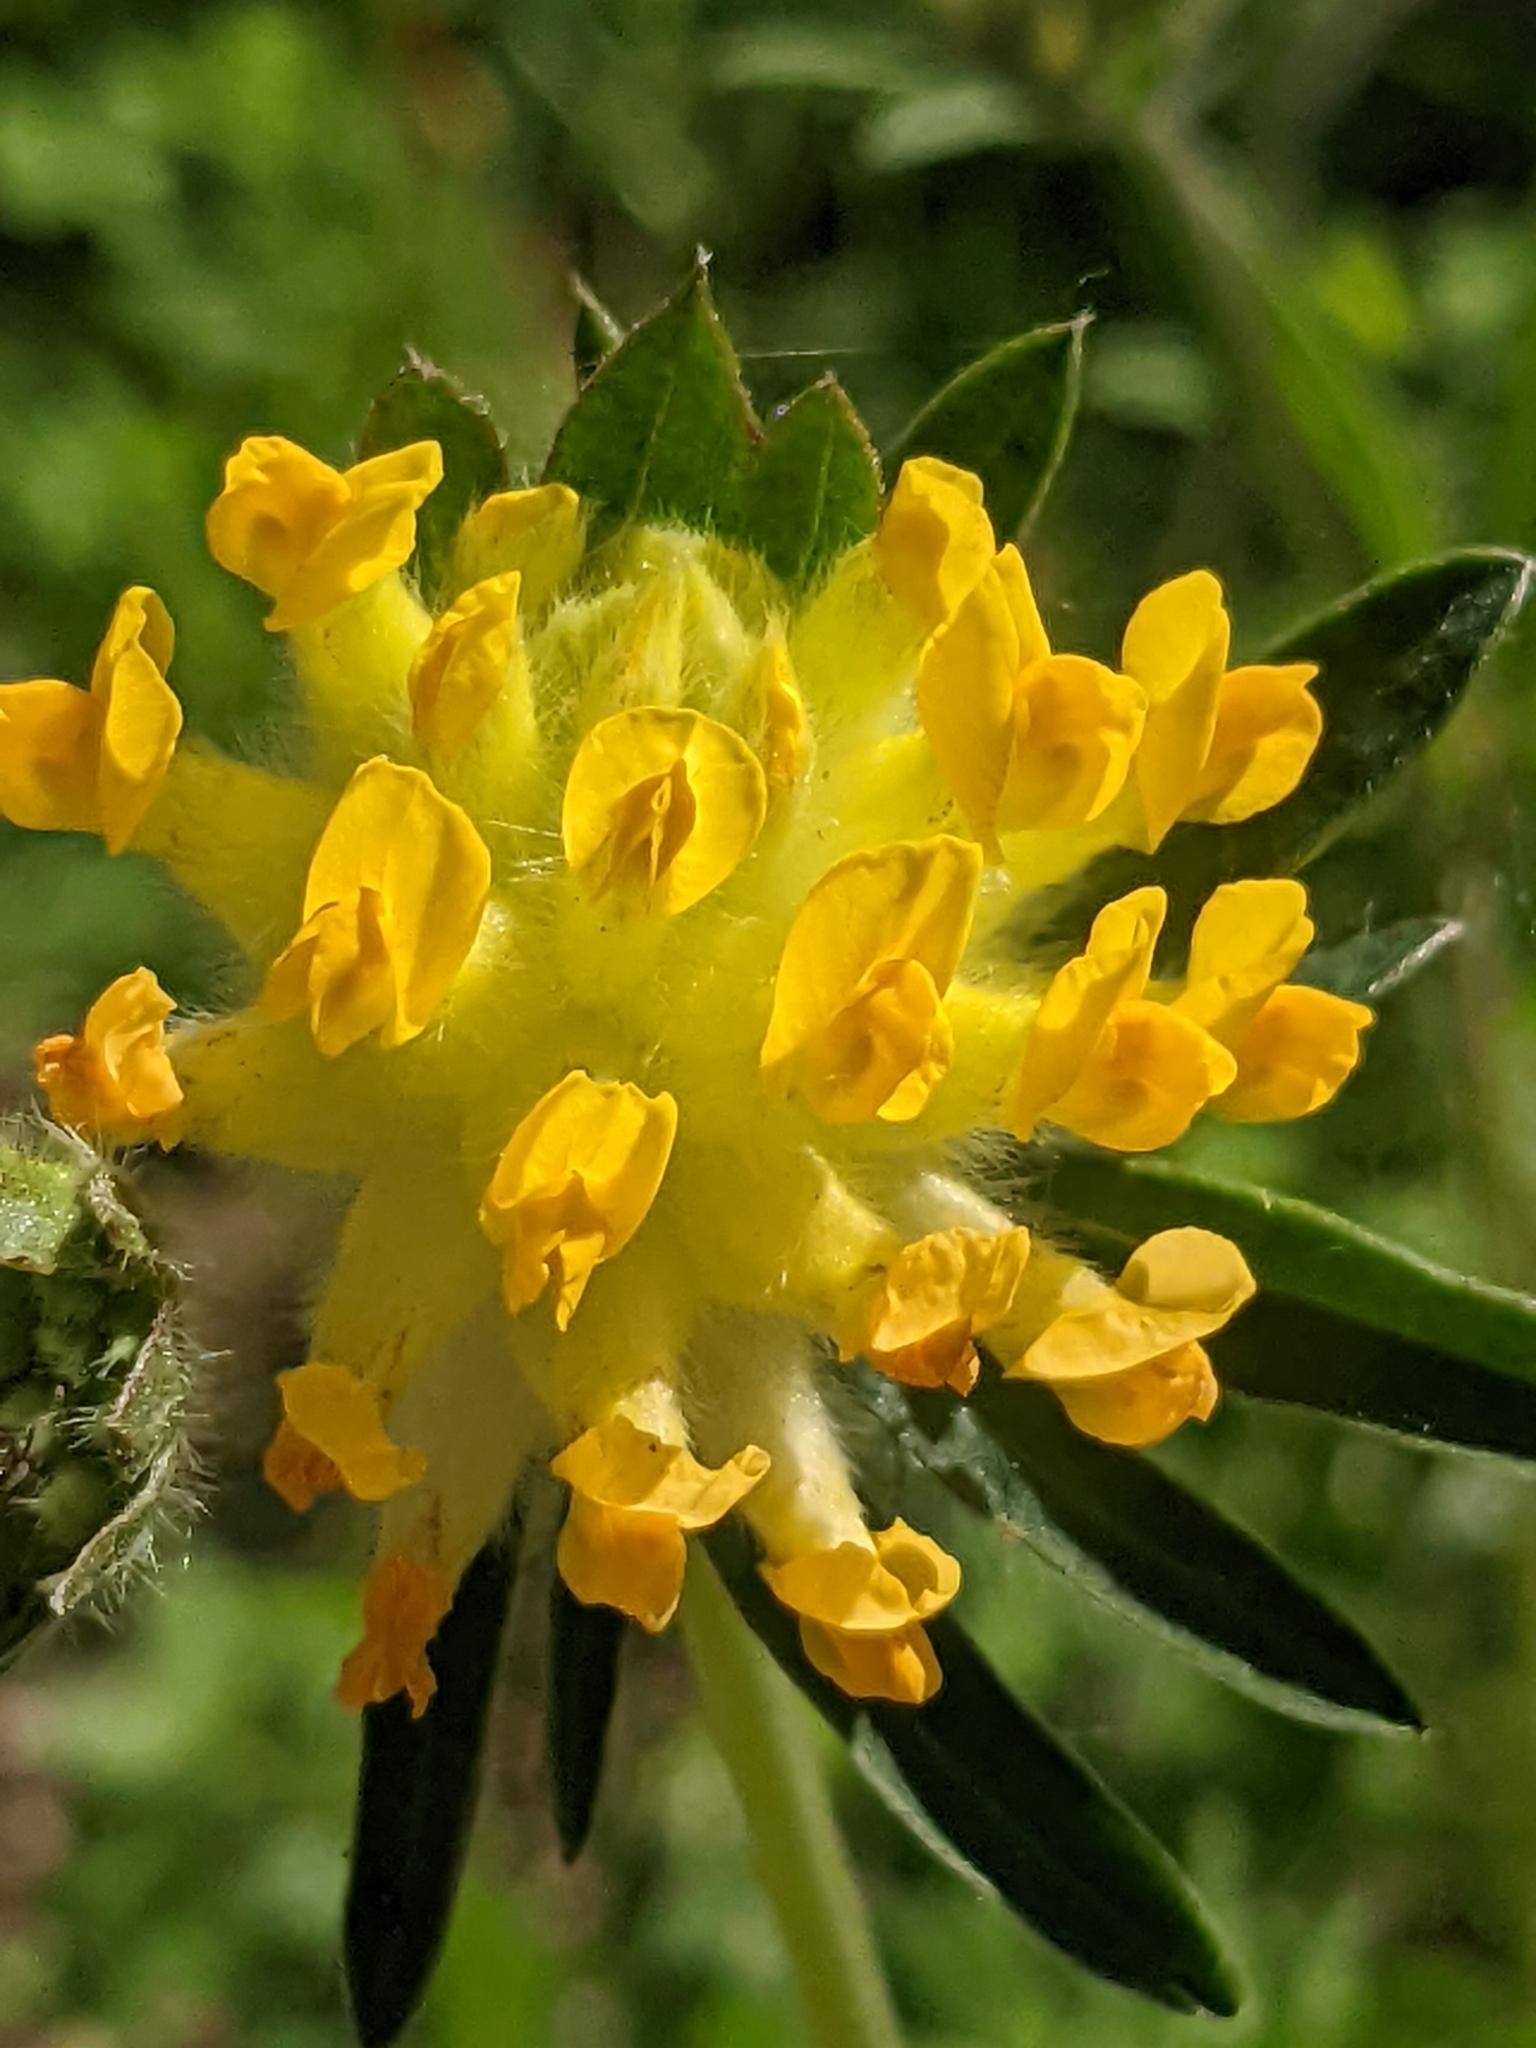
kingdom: Plantae
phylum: Tracheophyta
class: Magnoliopsida
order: Fabales
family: Fabaceae
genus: Anthyllis
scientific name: Anthyllis vulneraria
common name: Kidney vetch
